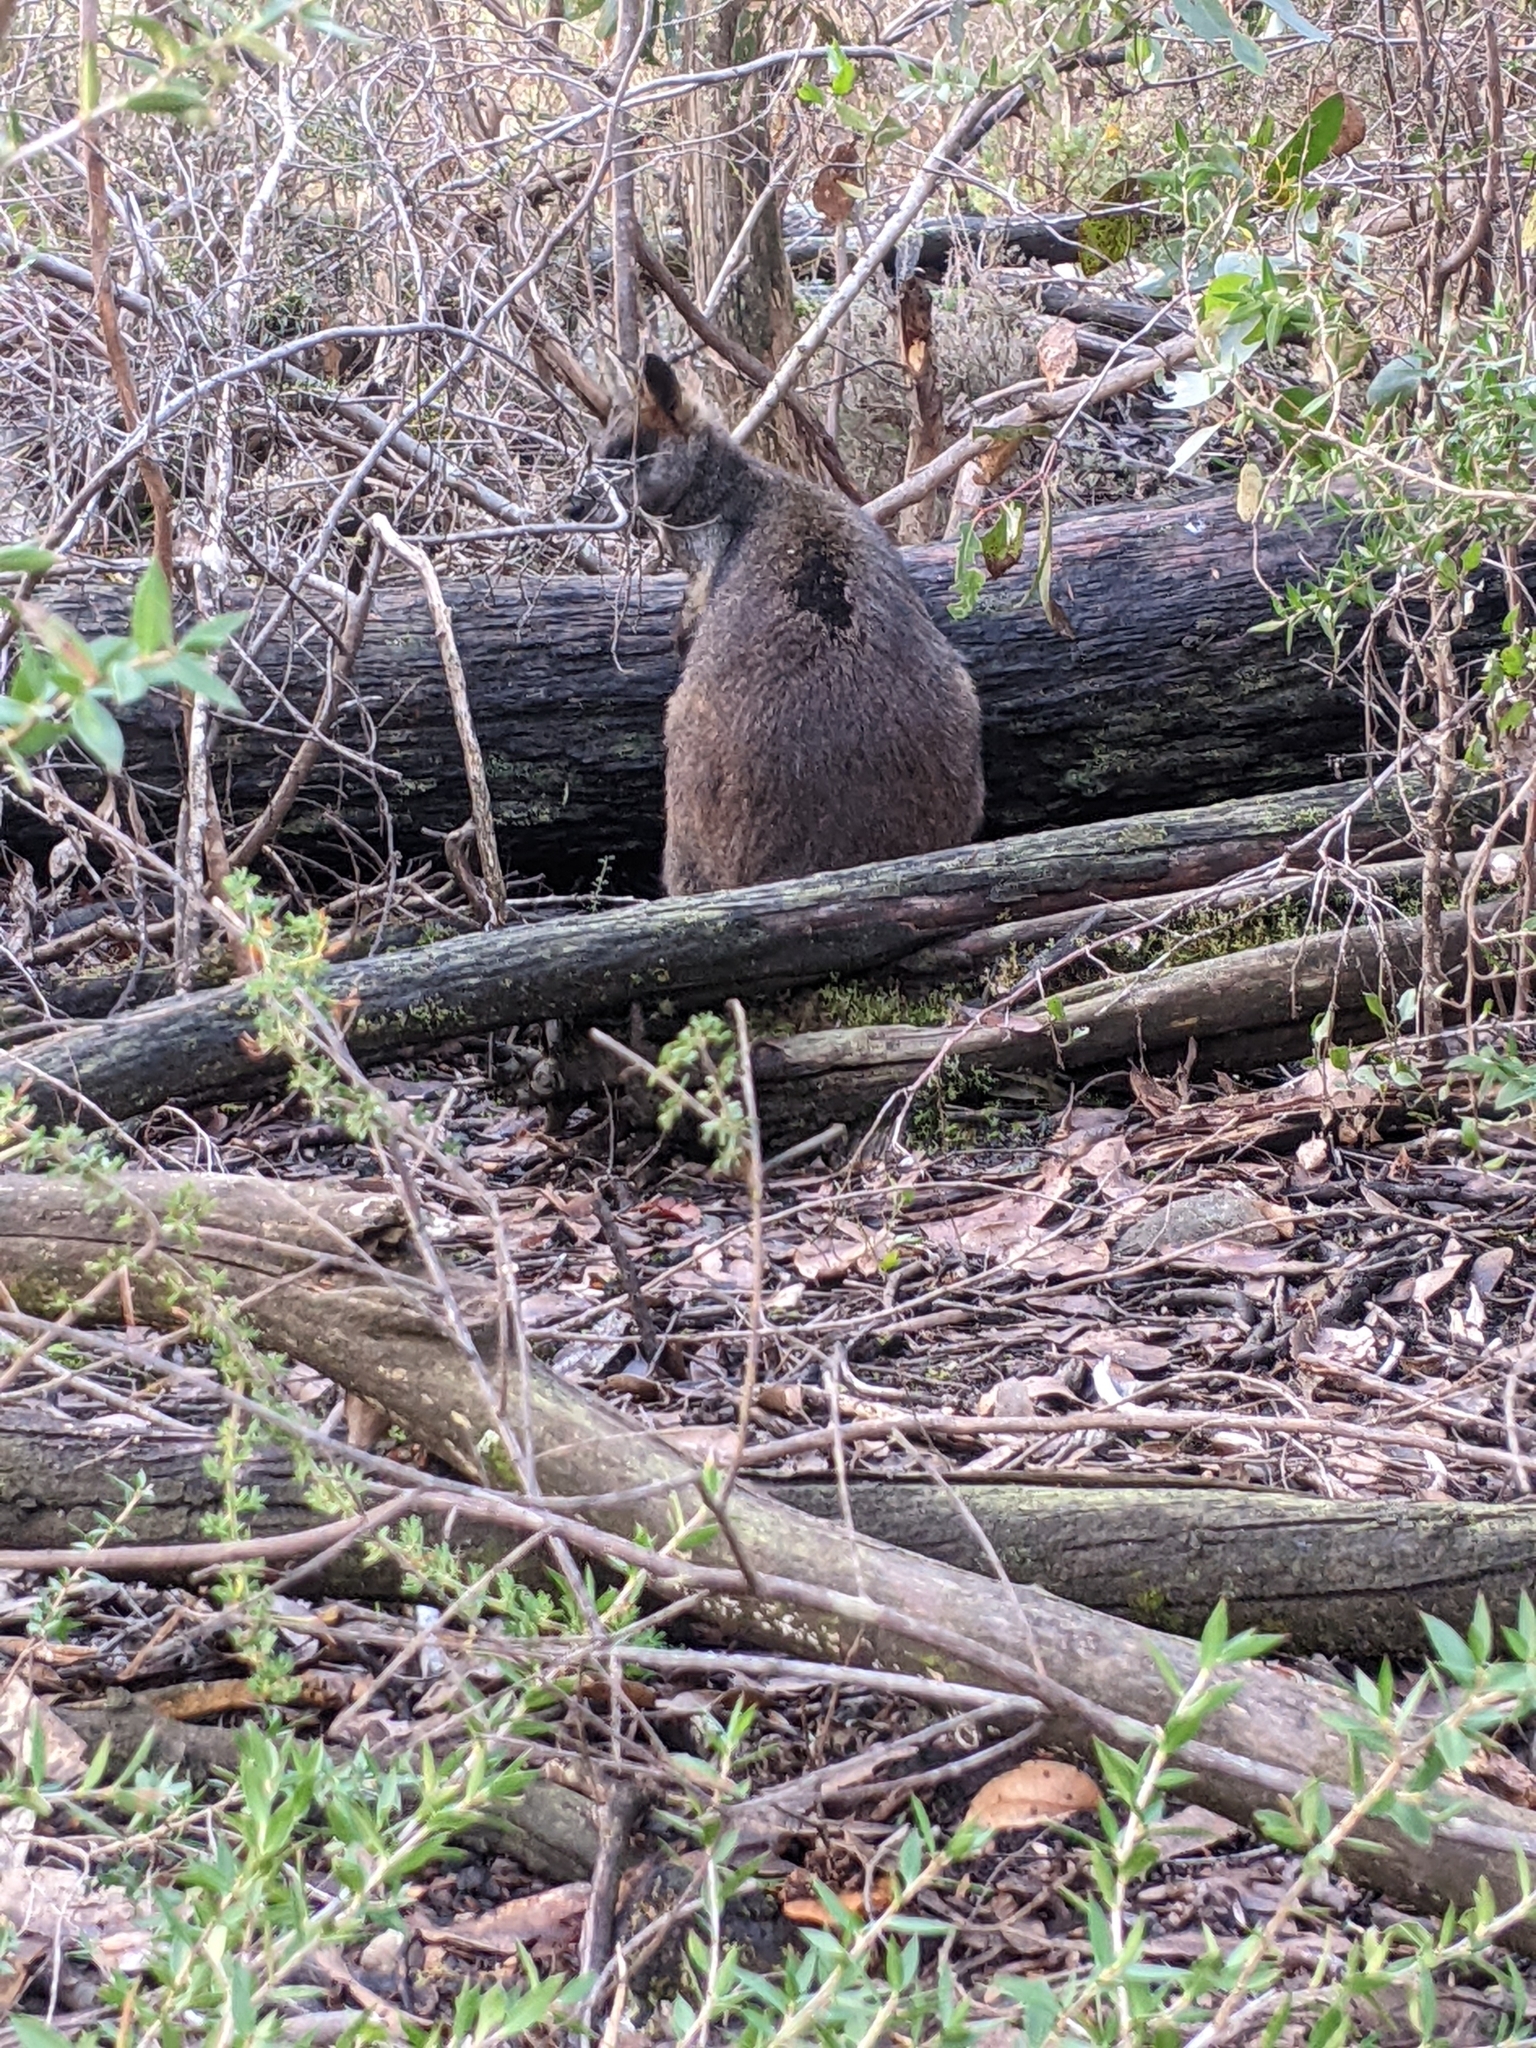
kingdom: Animalia
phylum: Chordata
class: Mammalia
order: Diprotodontia
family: Macropodidae
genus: Wallabia
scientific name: Wallabia bicolor
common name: Swamp wallaby
